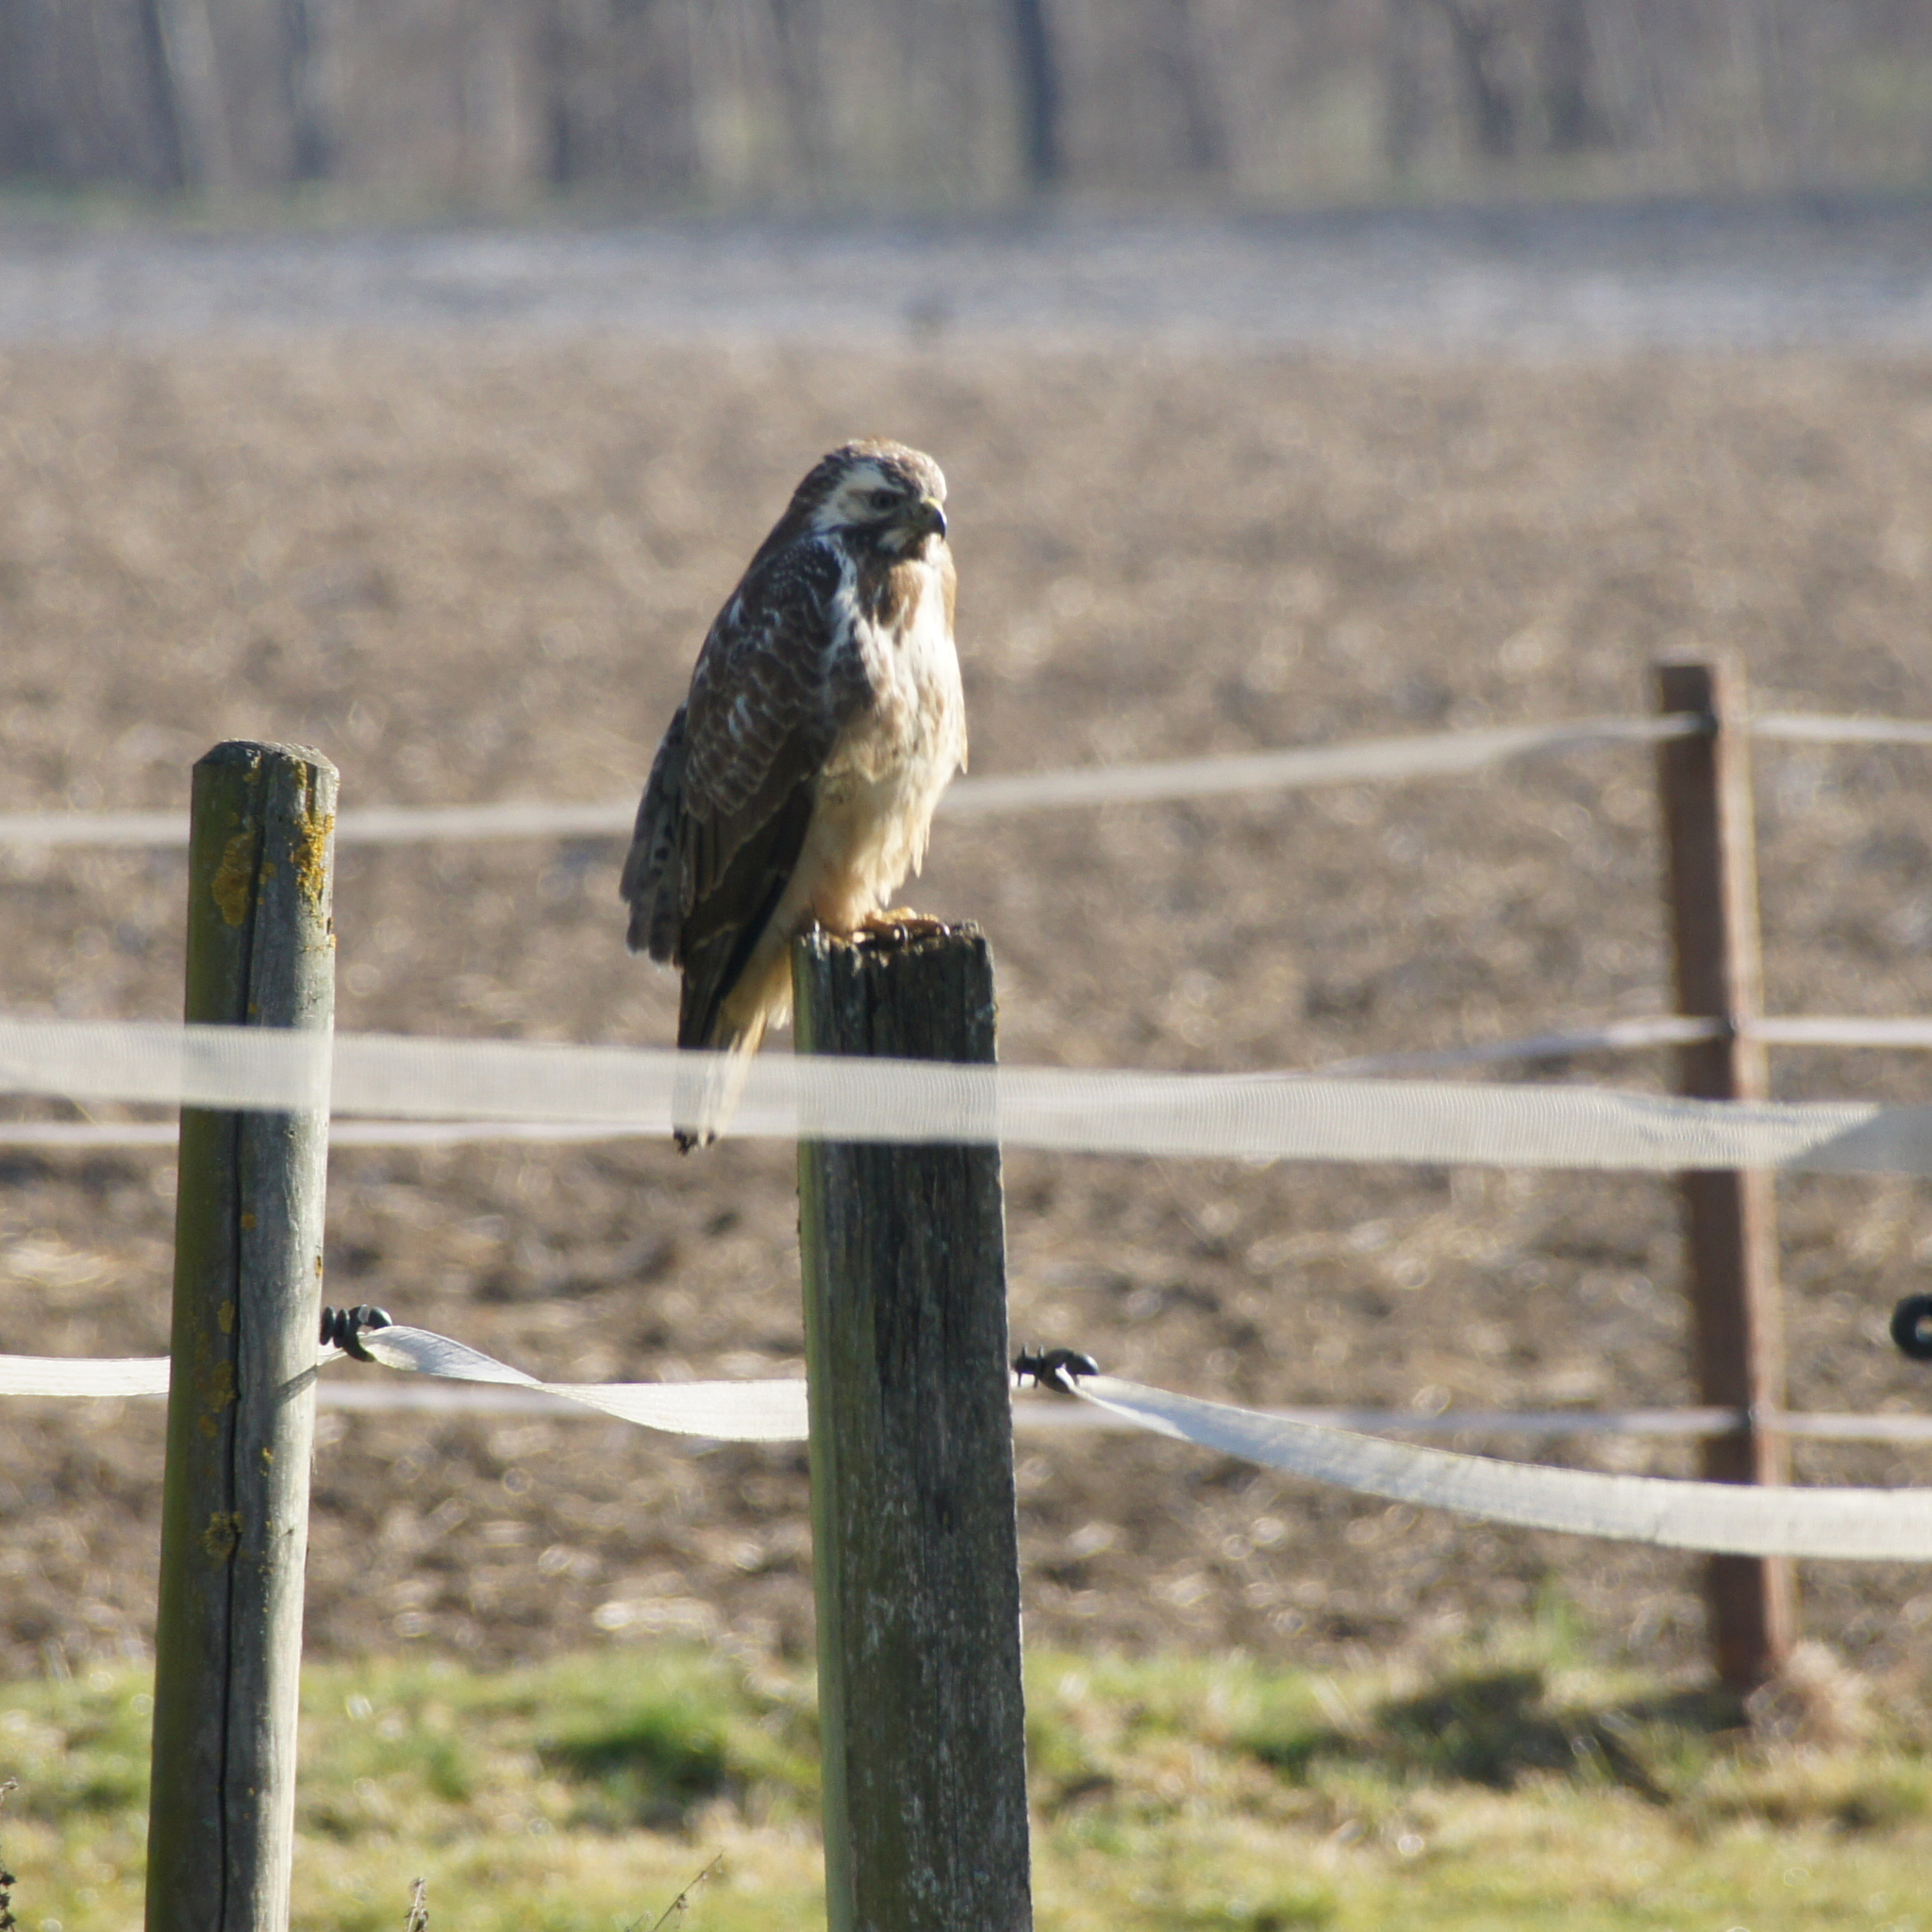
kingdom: Animalia
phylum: Chordata
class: Aves
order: Accipitriformes
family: Accipitridae
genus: Buteo
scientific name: Buteo buteo
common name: Common buzzard
